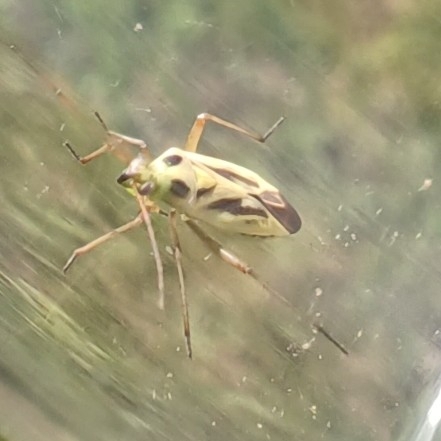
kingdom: Animalia
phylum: Arthropoda
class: Insecta
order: Hemiptera
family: Miridae
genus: Stenotus
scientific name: Stenotus binotatus
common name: Plant bug
